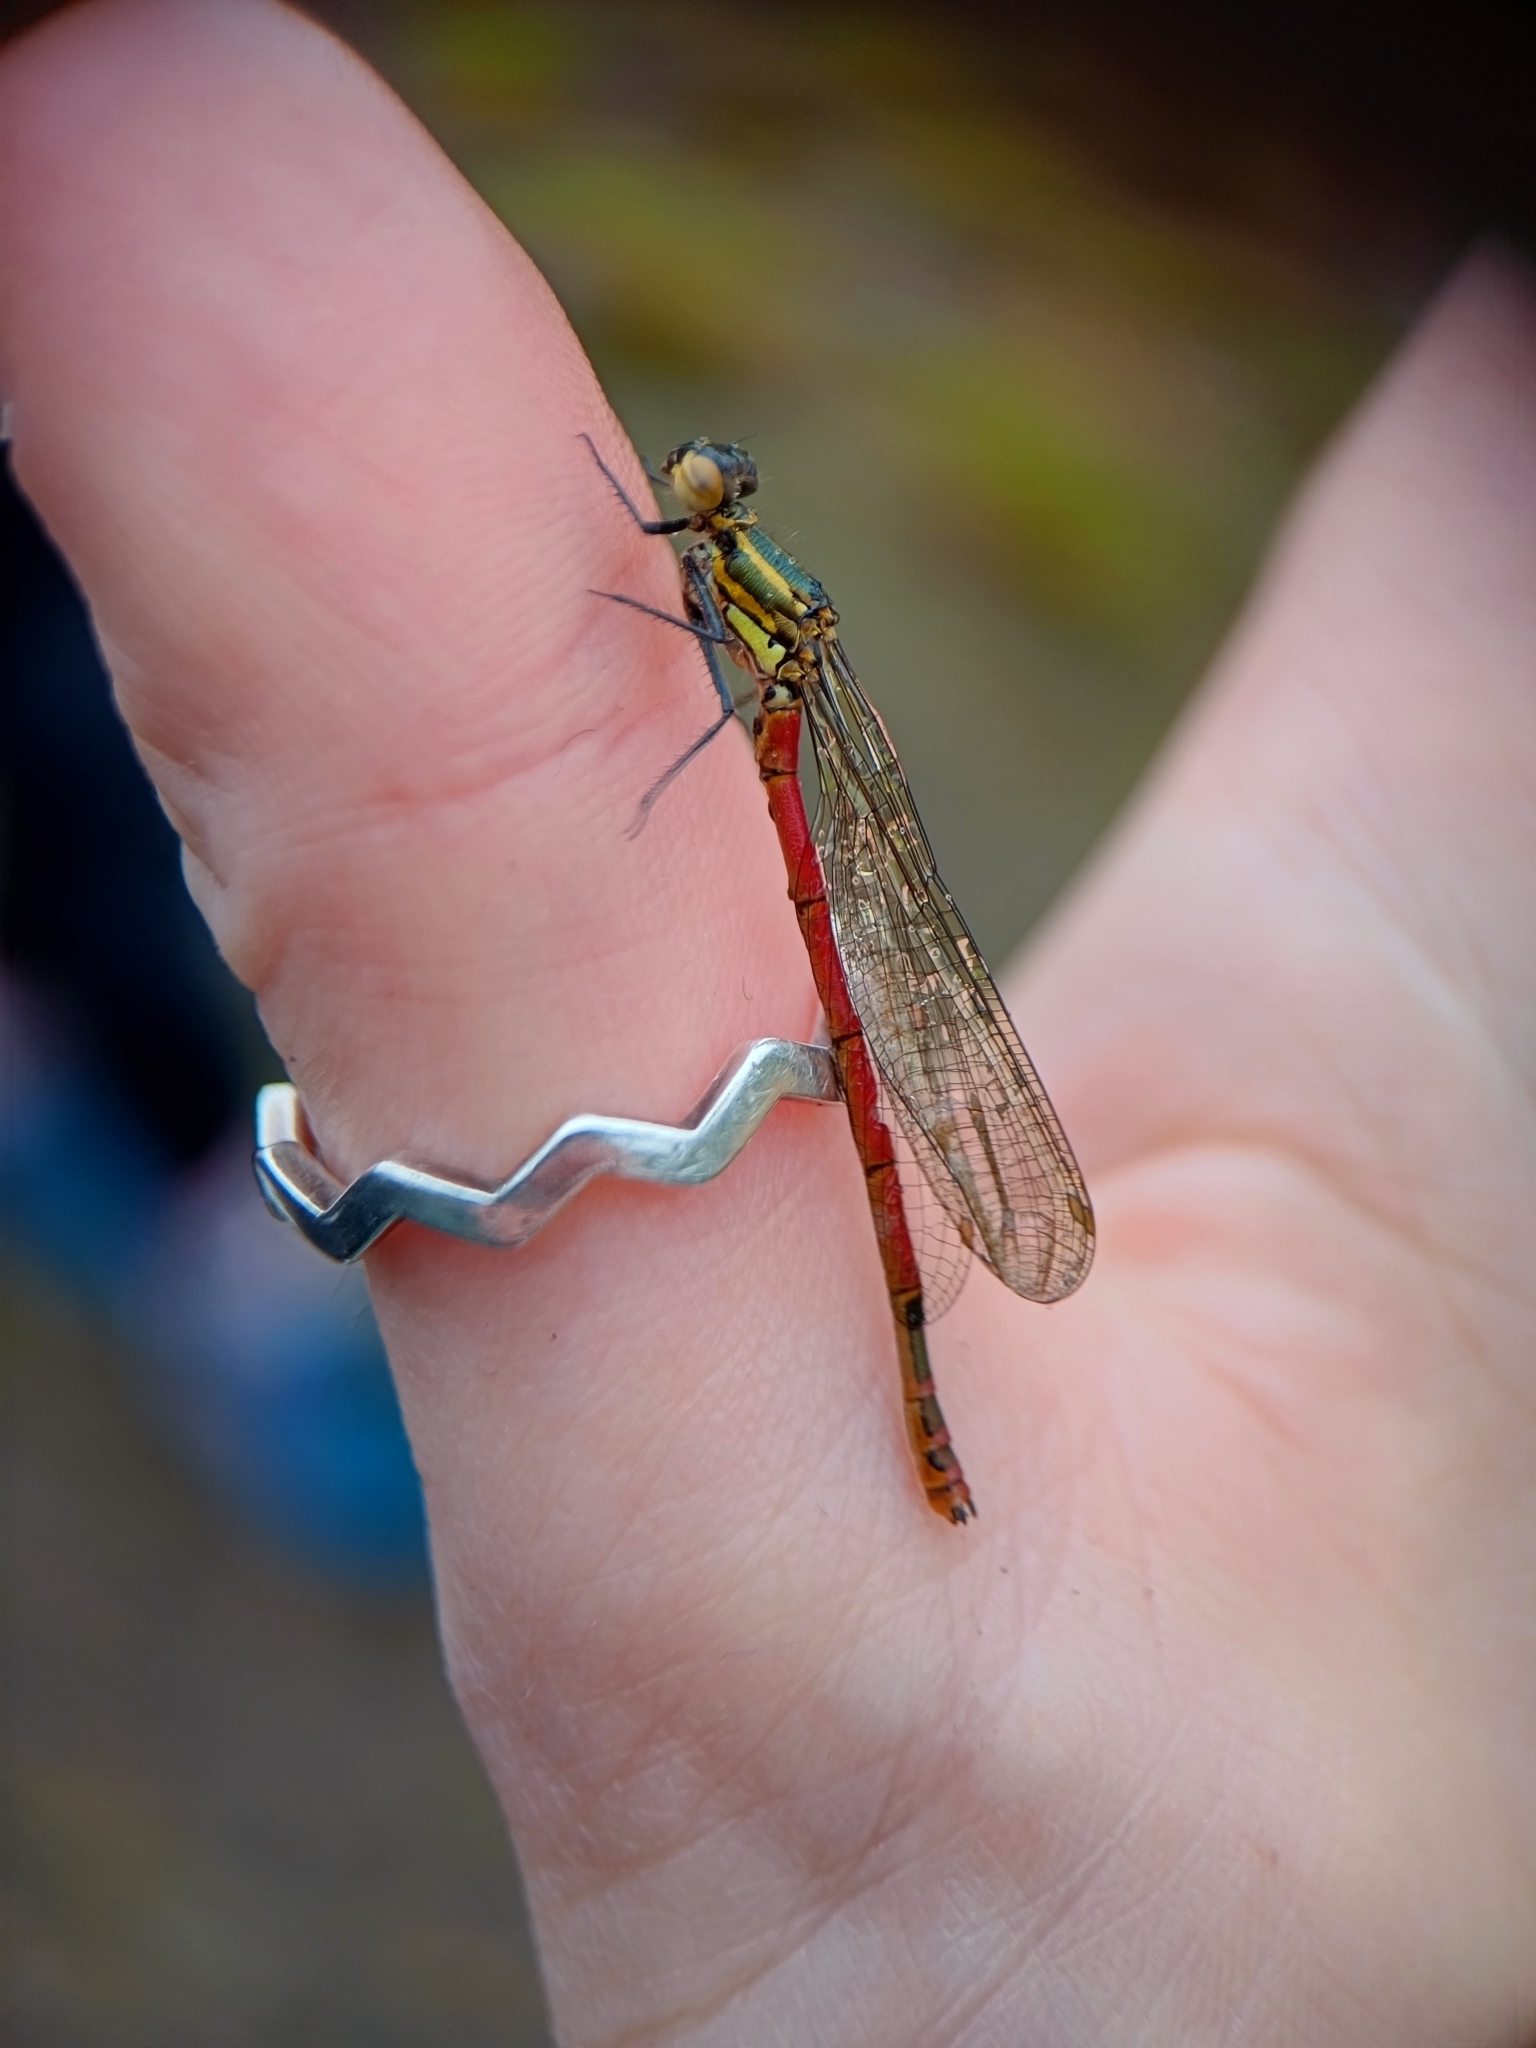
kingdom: Animalia
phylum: Arthropoda
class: Insecta
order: Odonata
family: Coenagrionidae
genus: Pyrrhosoma
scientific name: Pyrrhosoma nymphula
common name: Large red damsel
